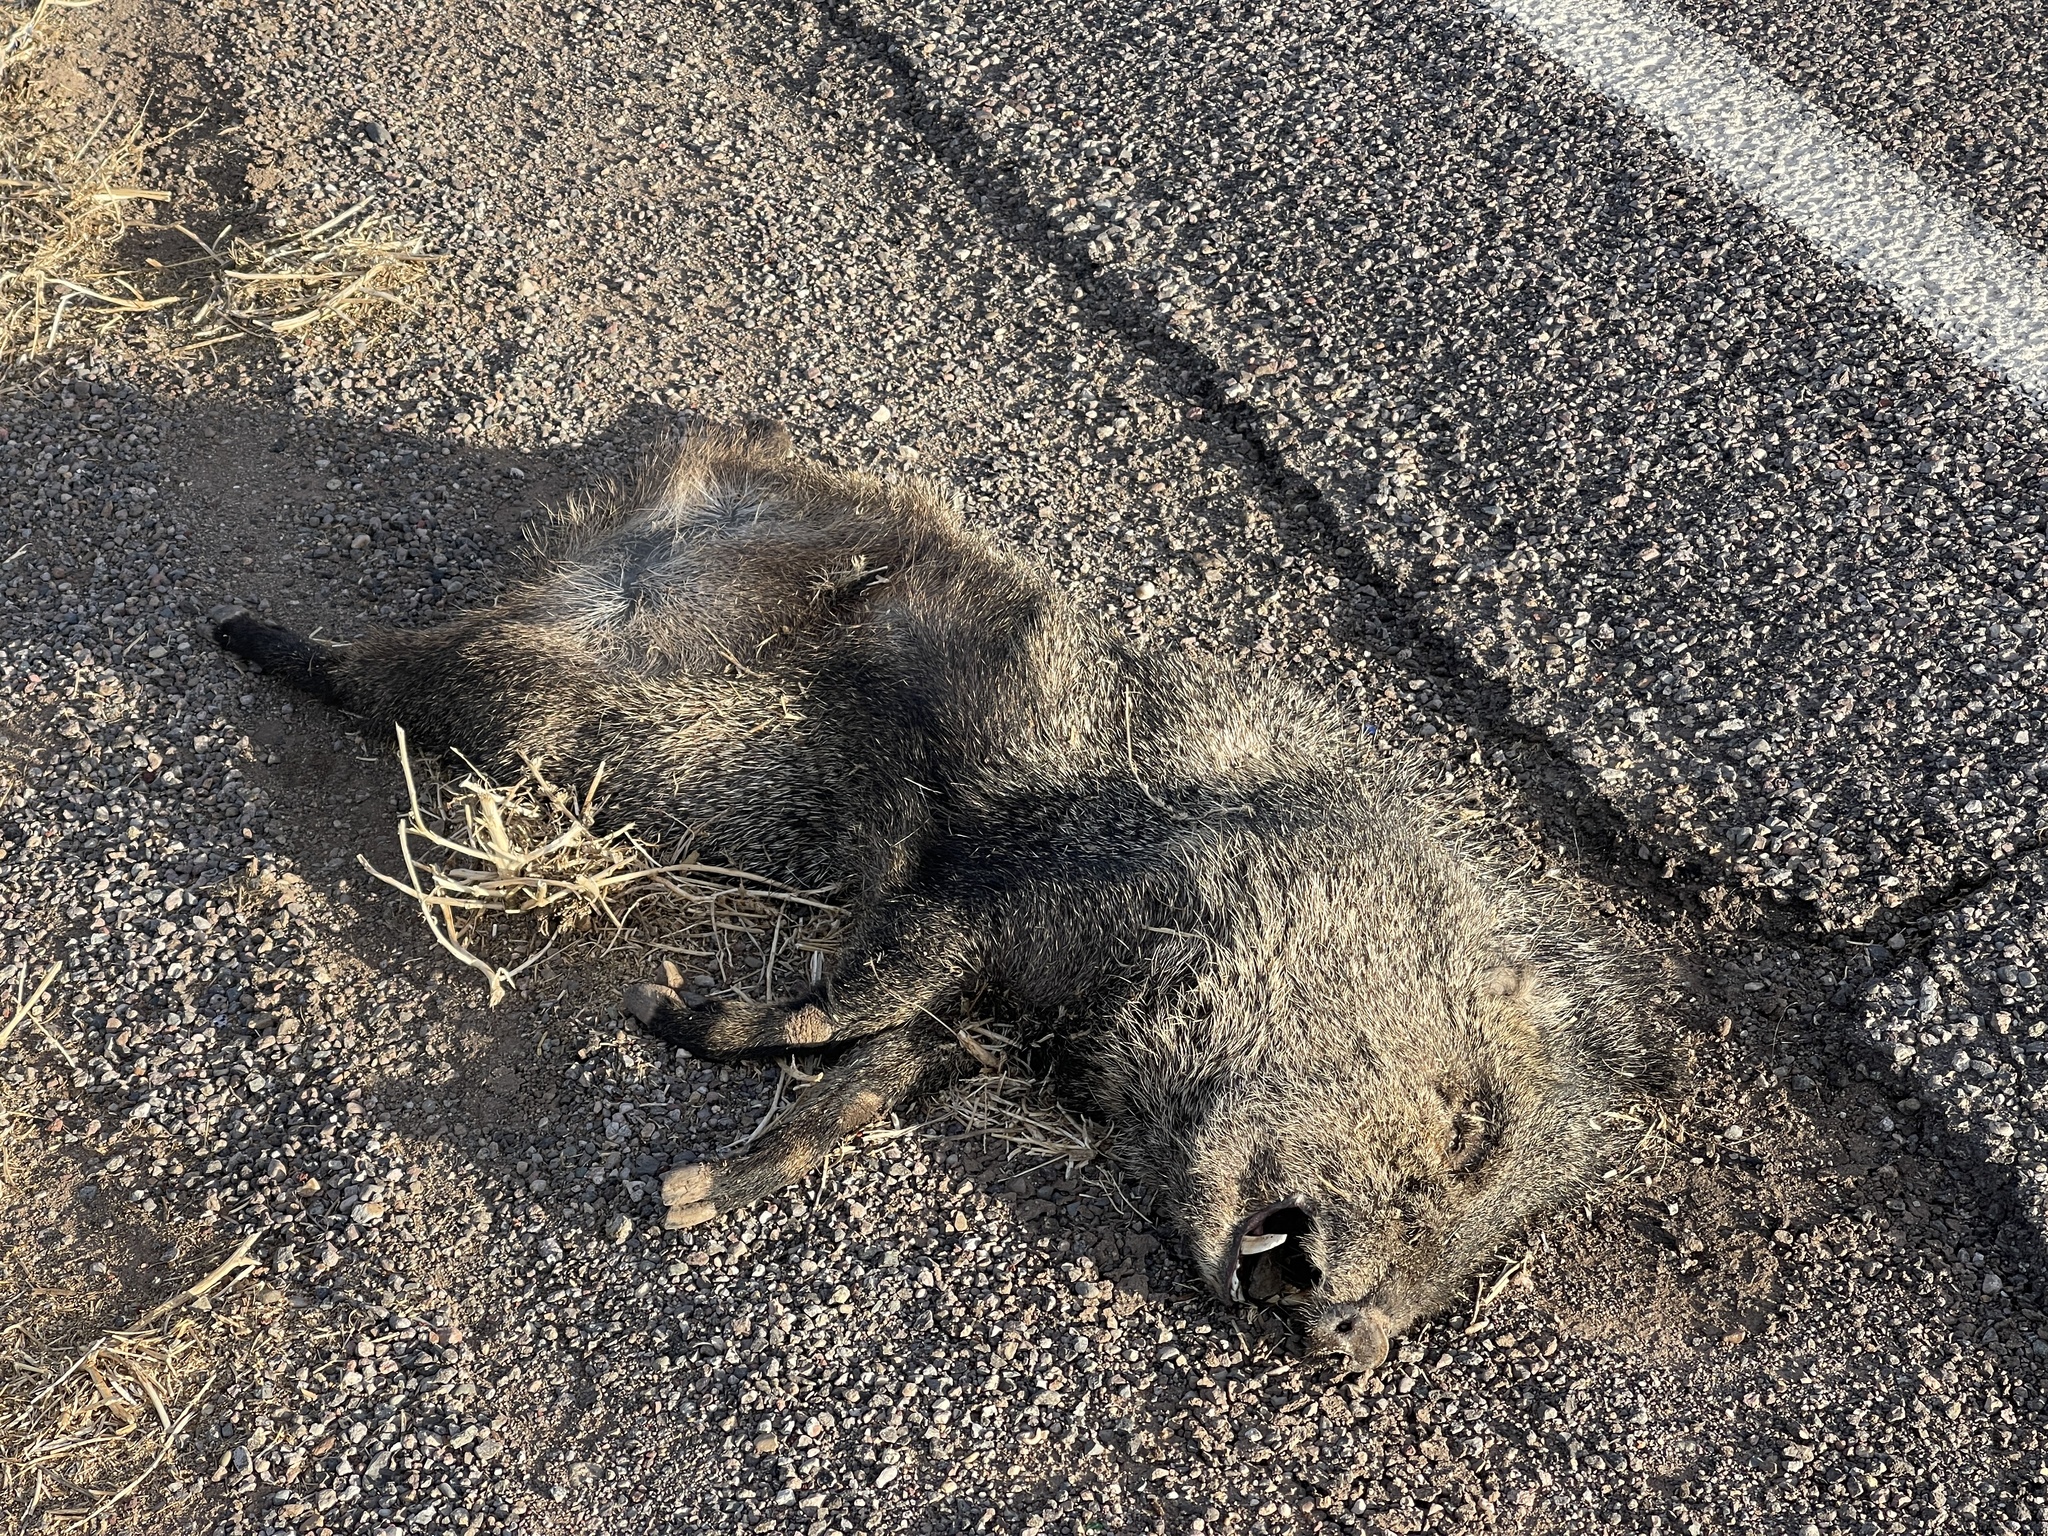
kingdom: Animalia
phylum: Chordata
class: Mammalia
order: Artiodactyla
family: Tayassuidae
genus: Pecari
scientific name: Pecari tajacu
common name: Collared peccary
